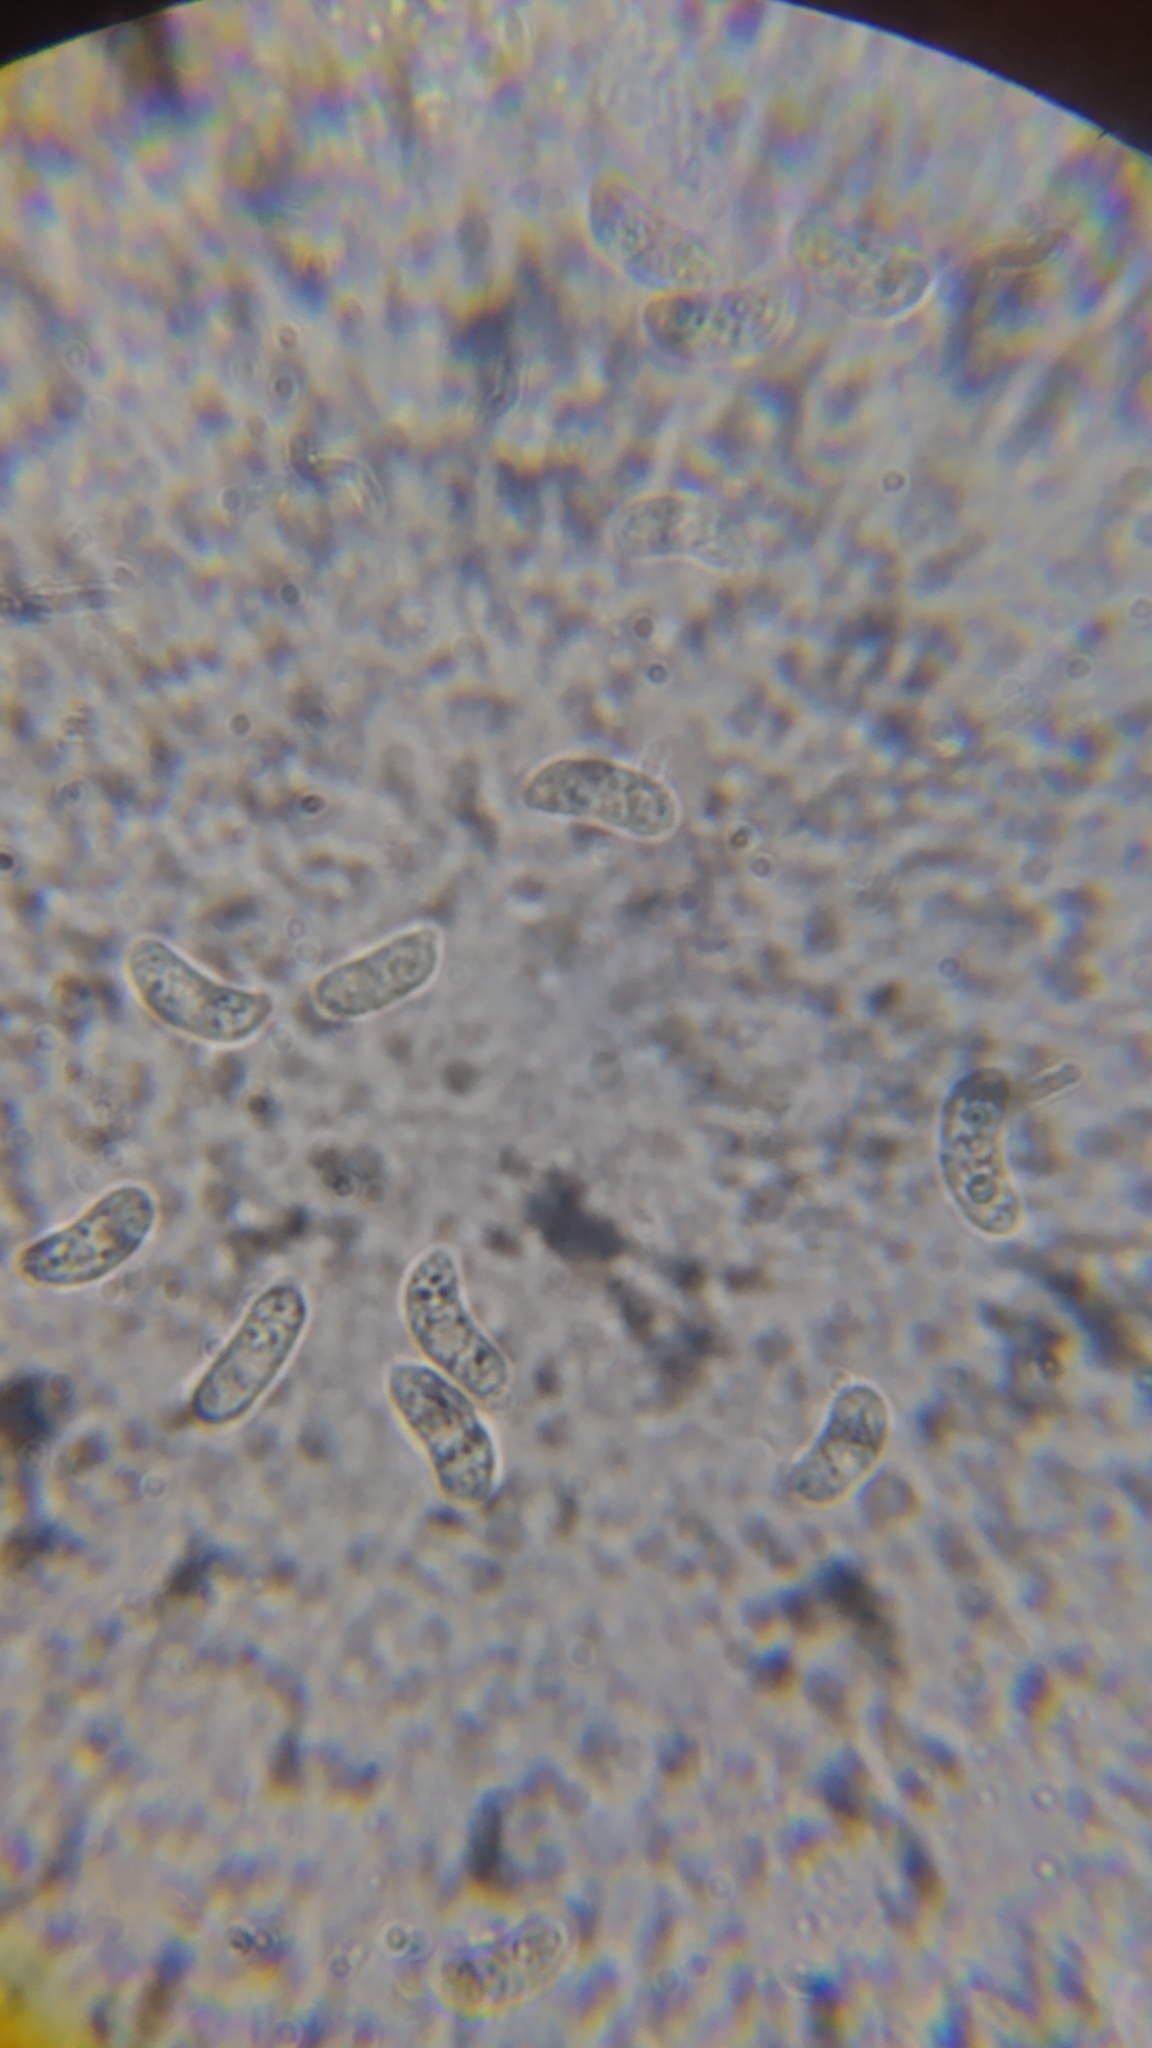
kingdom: Fungi
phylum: Basidiomycota
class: Agaricomycetes
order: Auriculariales
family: Auriculariaceae
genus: Exidia
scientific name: Exidia nigricans
